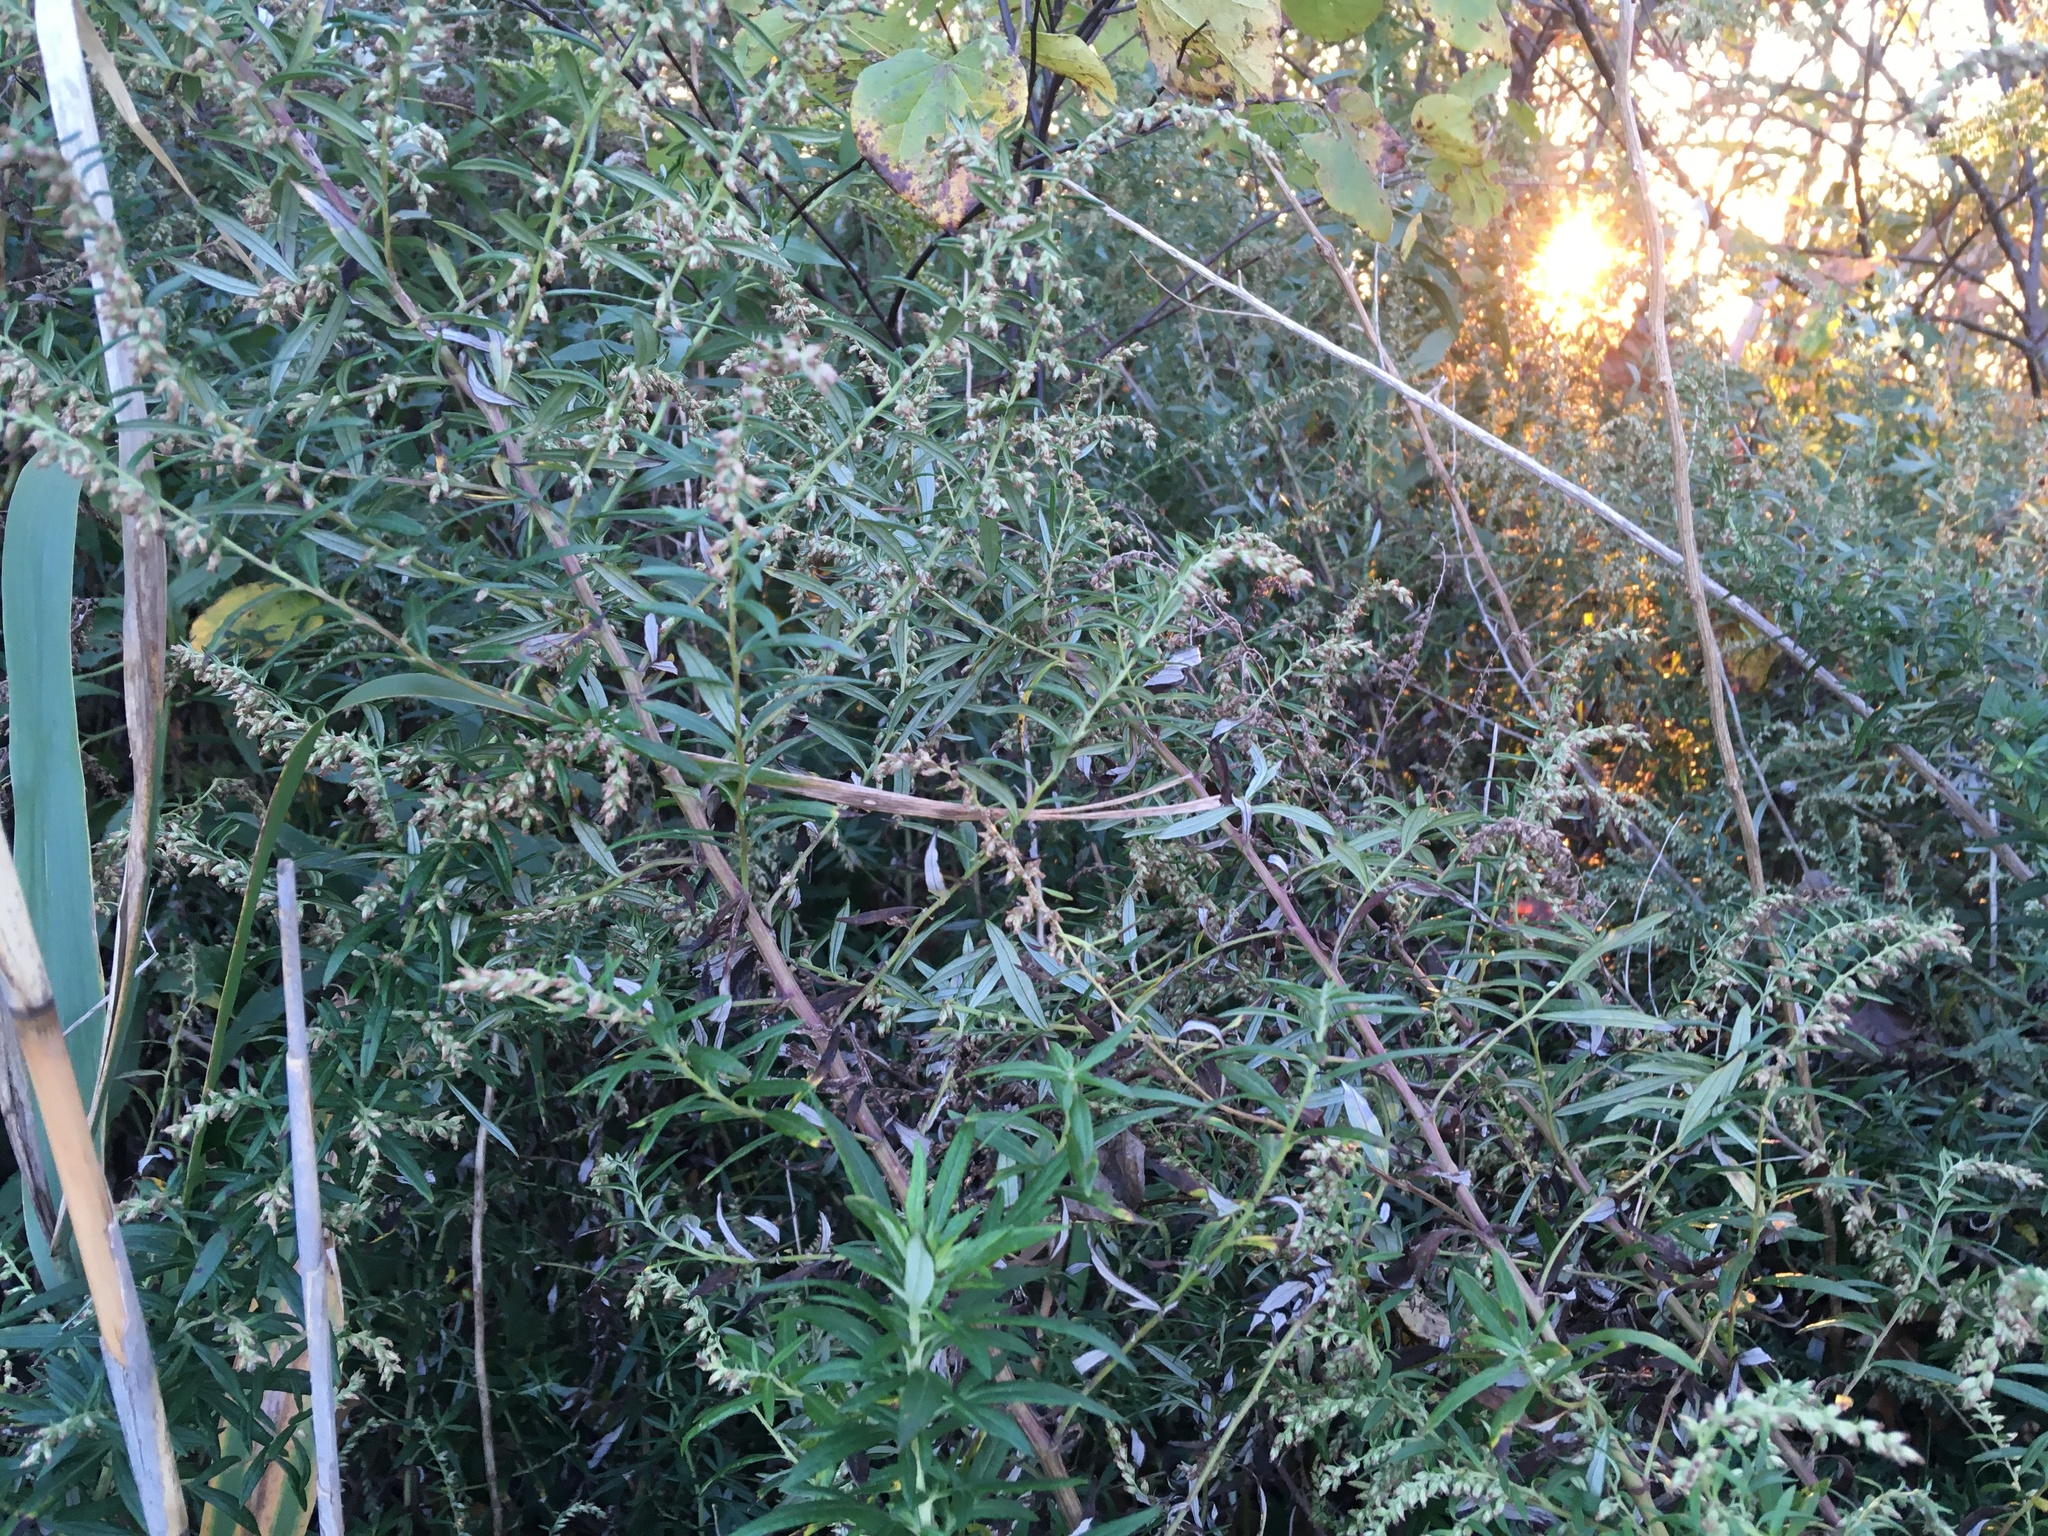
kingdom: Plantae
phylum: Tracheophyta
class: Magnoliopsida
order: Asterales
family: Asteraceae
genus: Artemisia
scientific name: Artemisia vulgaris
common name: Mugwort
